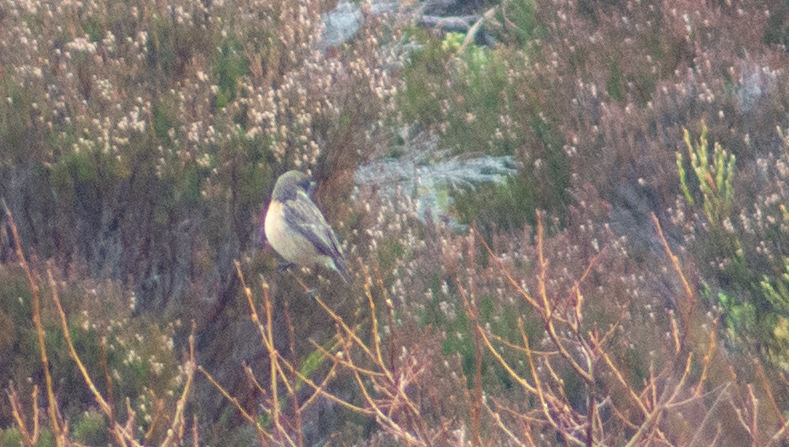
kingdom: Animalia
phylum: Chordata
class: Aves
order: Passeriformes
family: Muscicapidae
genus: Saxicola
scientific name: Saxicola rubicola
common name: European stonechat
